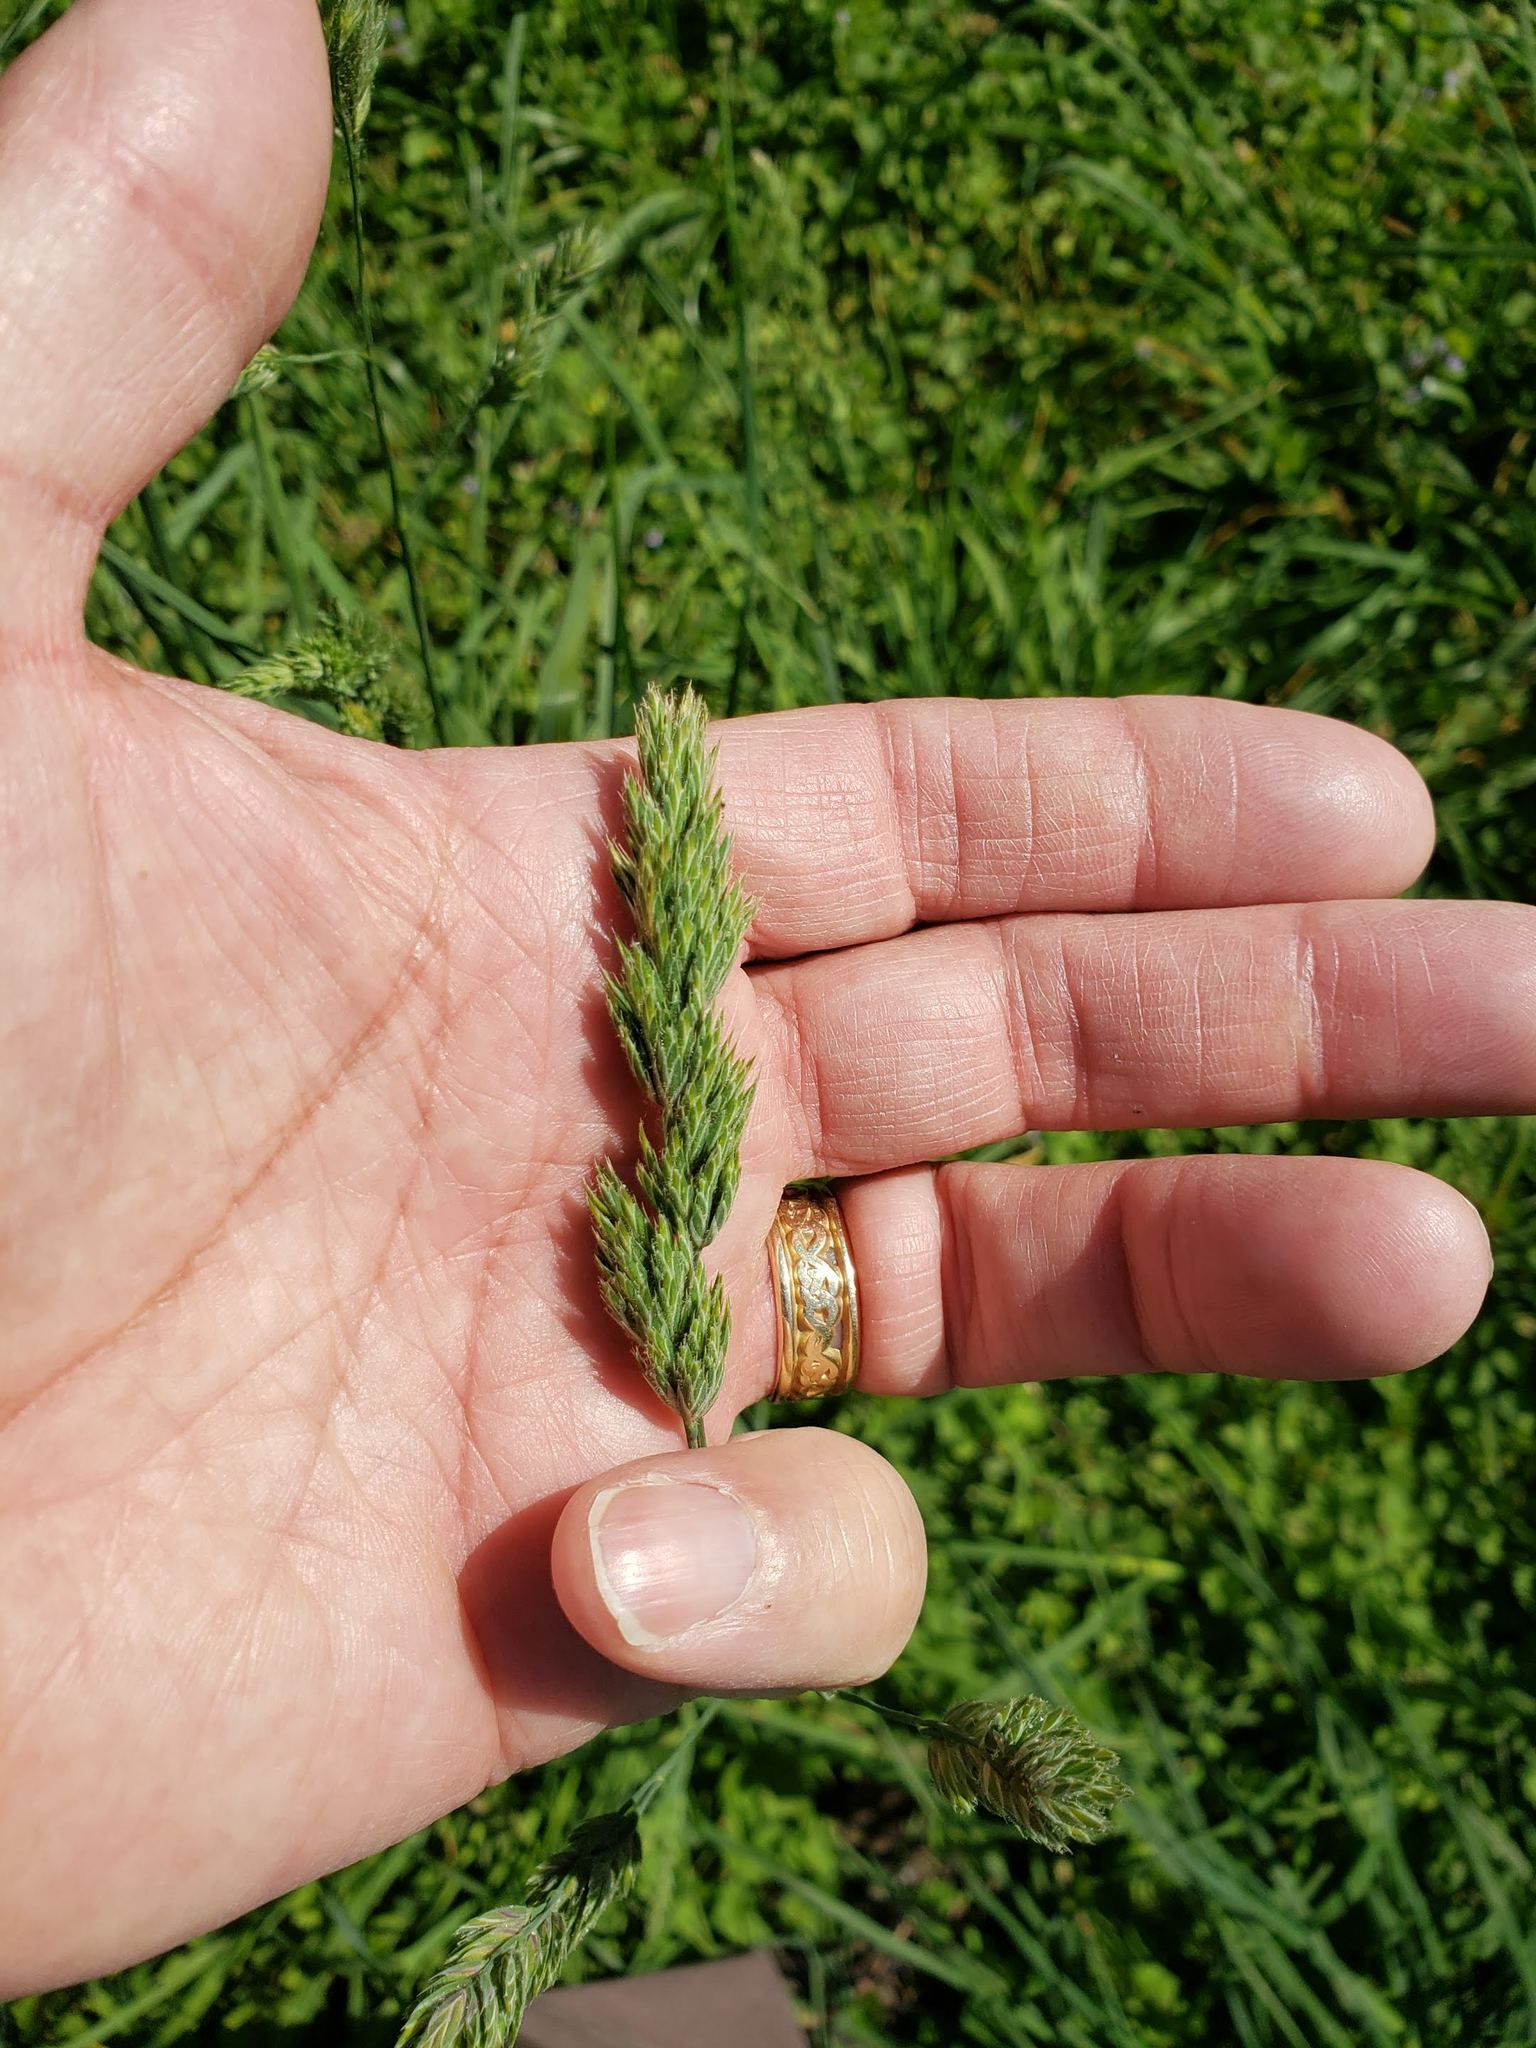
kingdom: Plantae
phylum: Tracheophyta
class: Liliopsida
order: Poales
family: Poaceae
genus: Dactylis
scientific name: Dactylis glomerata
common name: Orchardgrass
